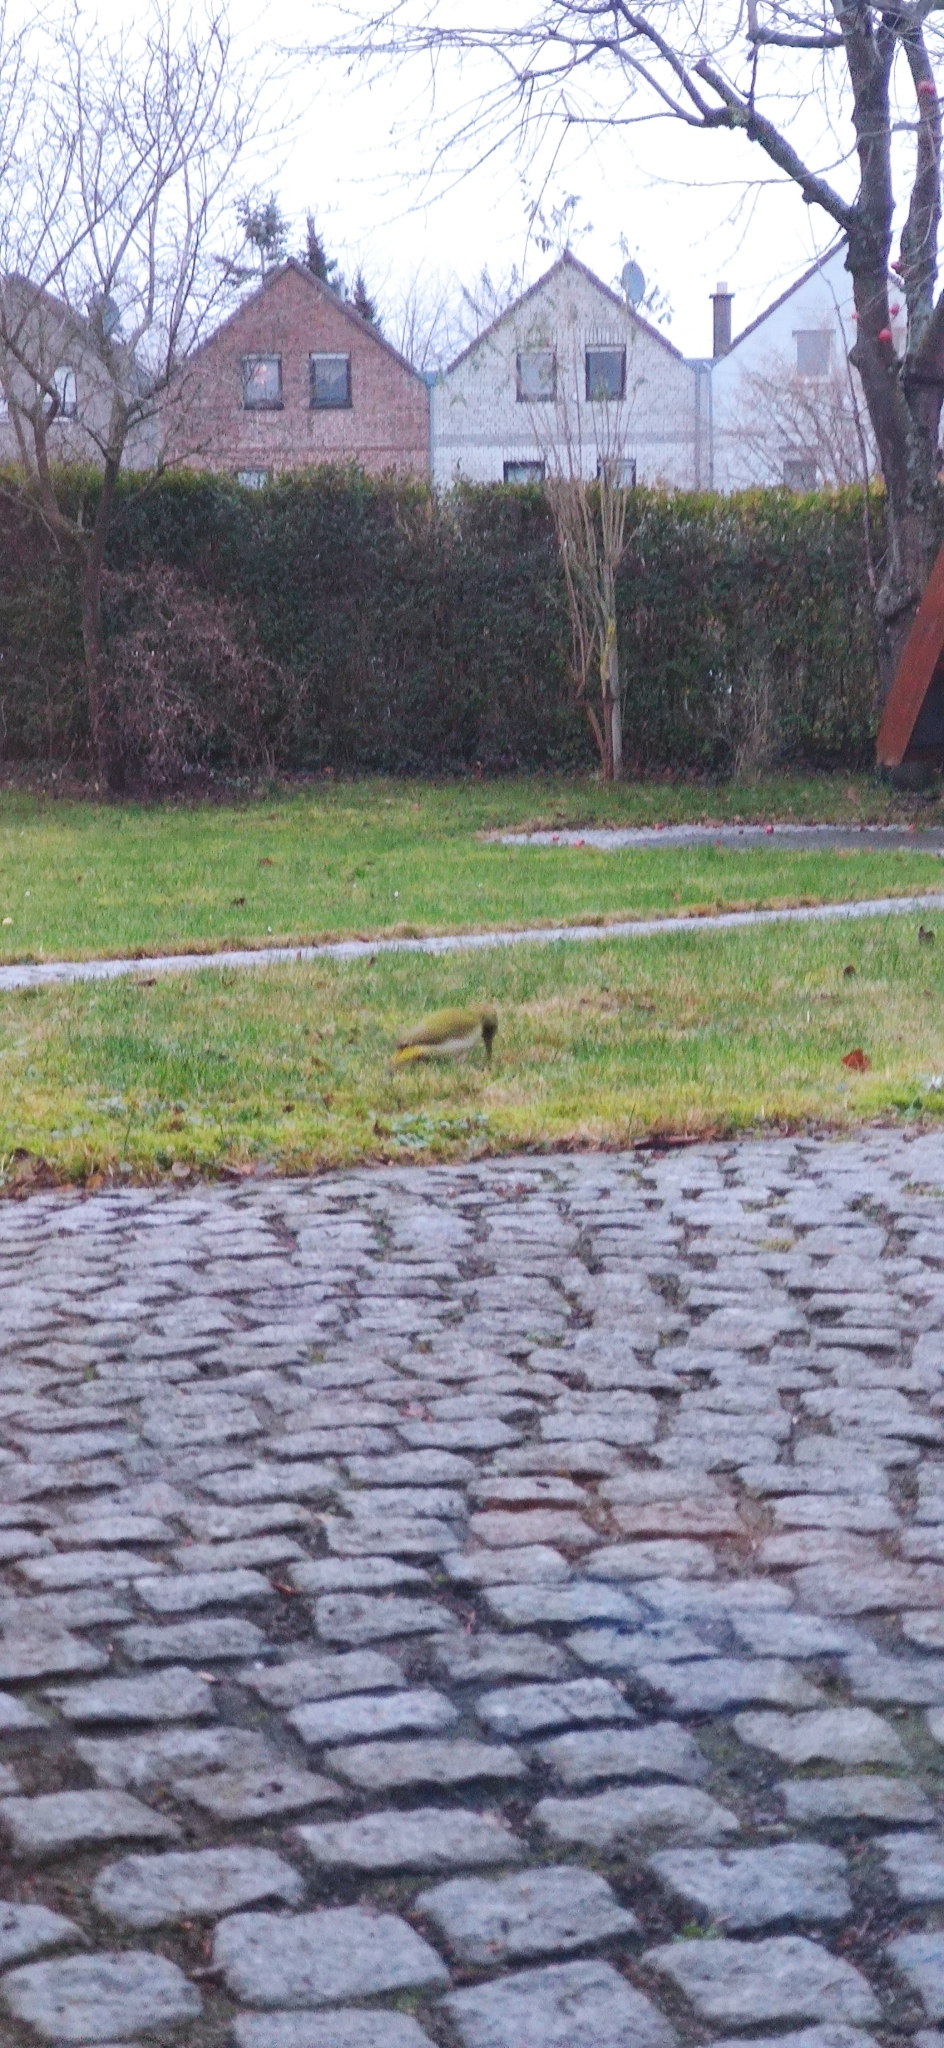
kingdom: Animalia
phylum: Chordata
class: Aves
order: Piciformes
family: Picidae
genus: Picus
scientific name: Picus viridis
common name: European green woodpecker
